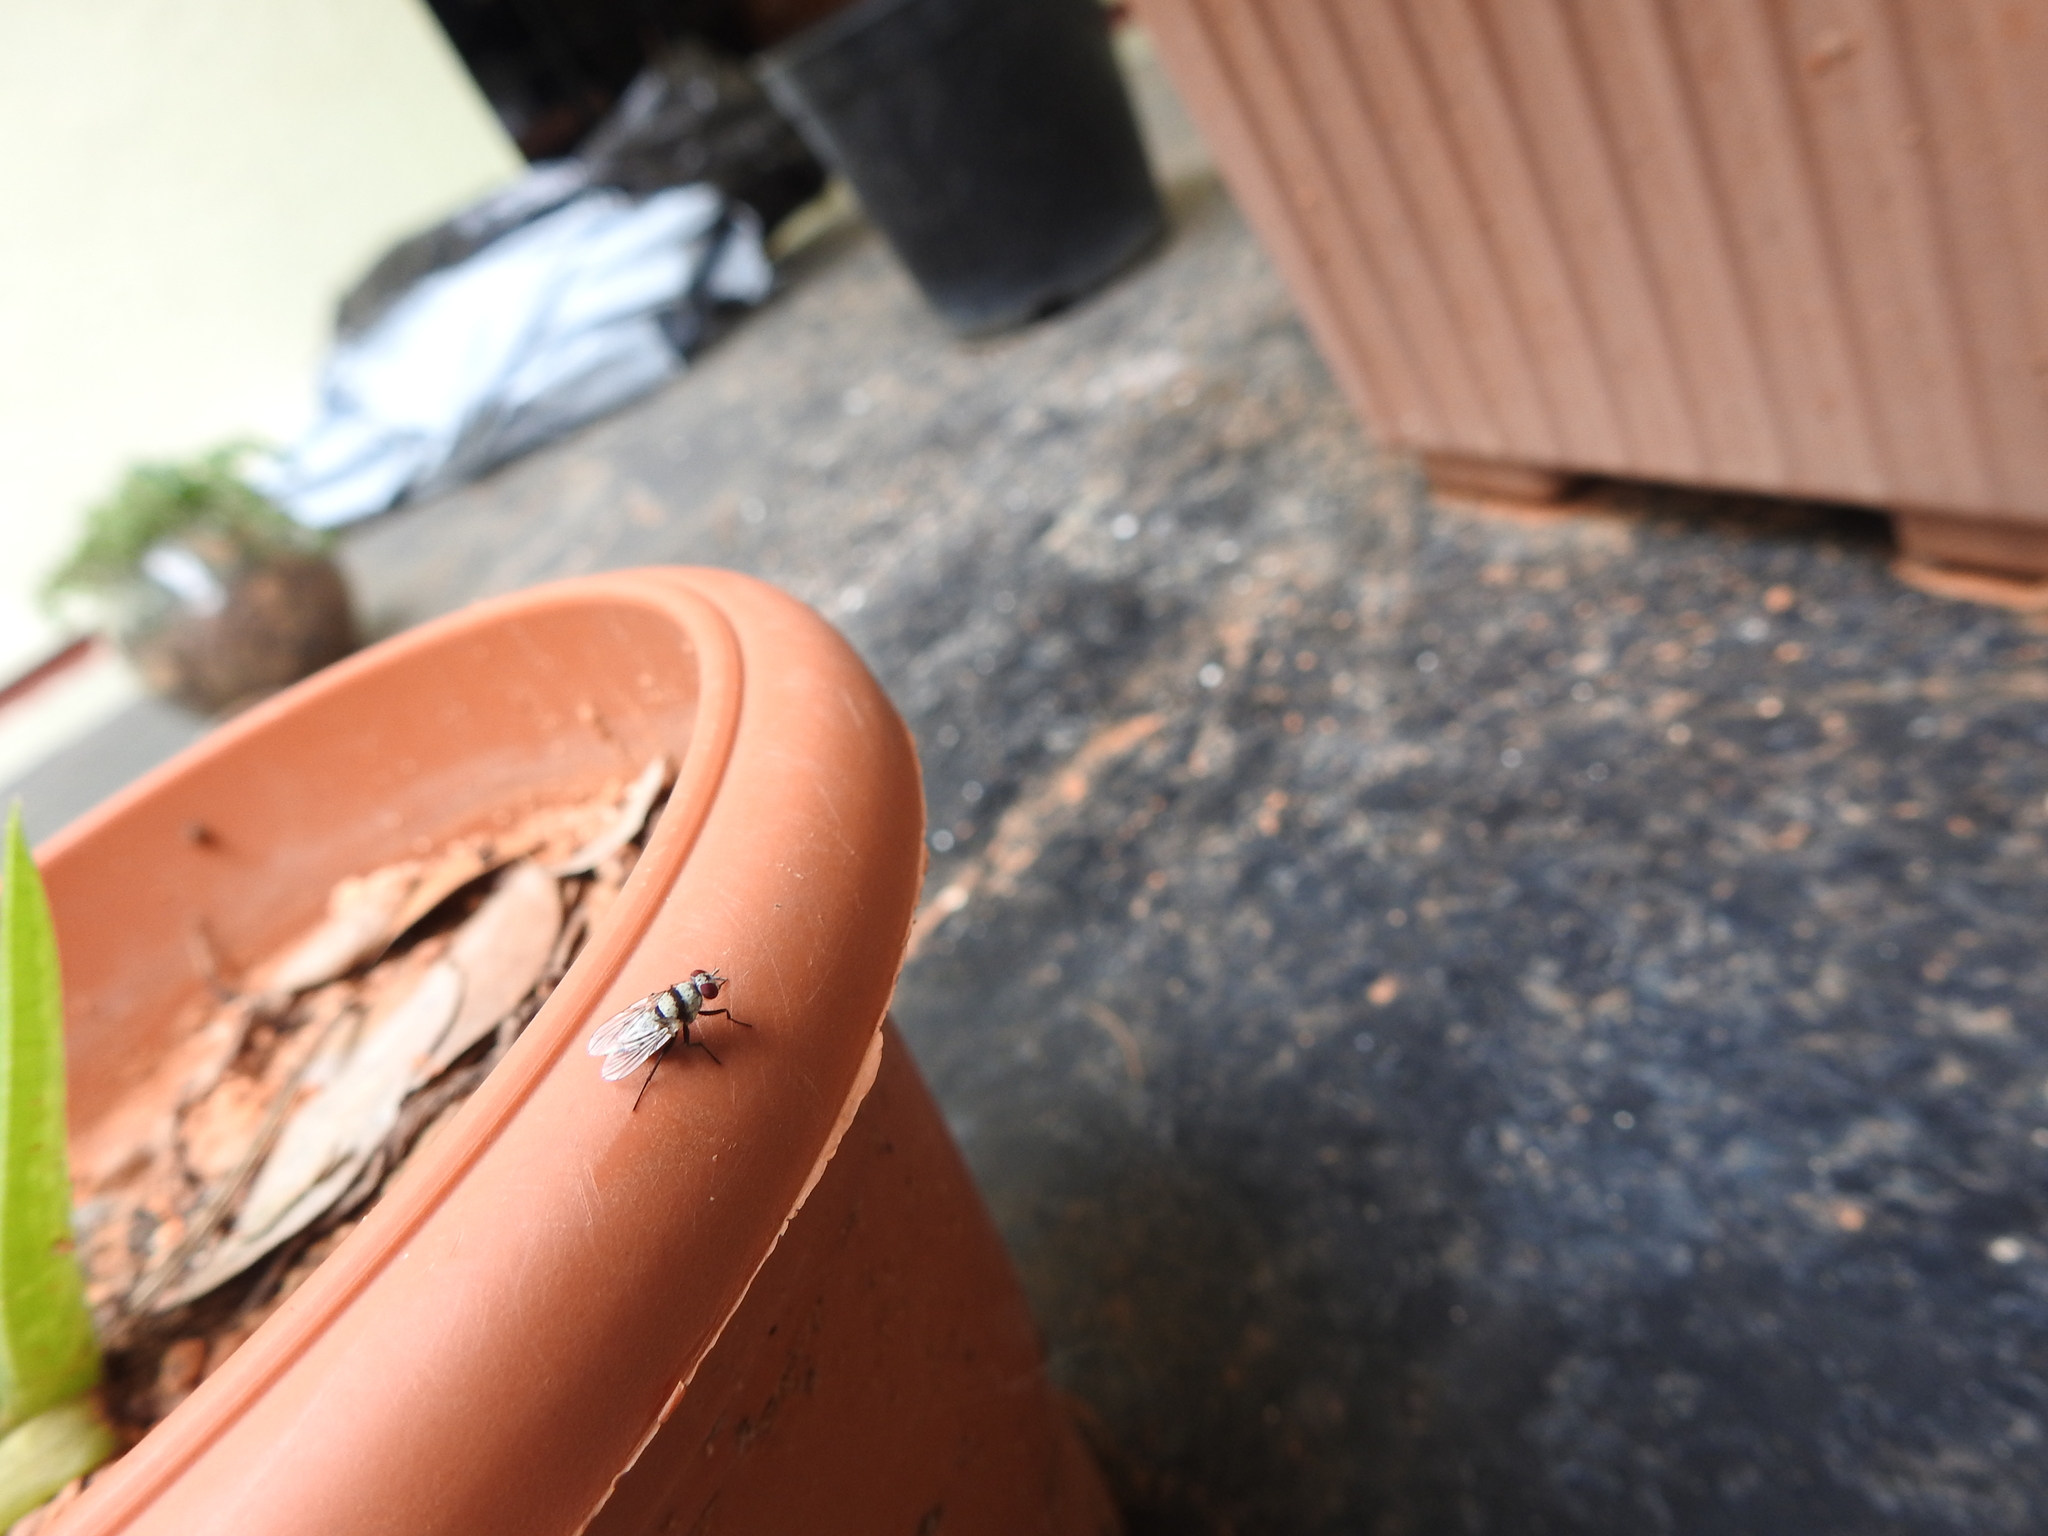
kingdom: Animalia
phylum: Arthropoda
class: Insecta
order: Diptera
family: Anthomyiidae
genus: Anthomyia
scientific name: Anthomyia illocata
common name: Fly
